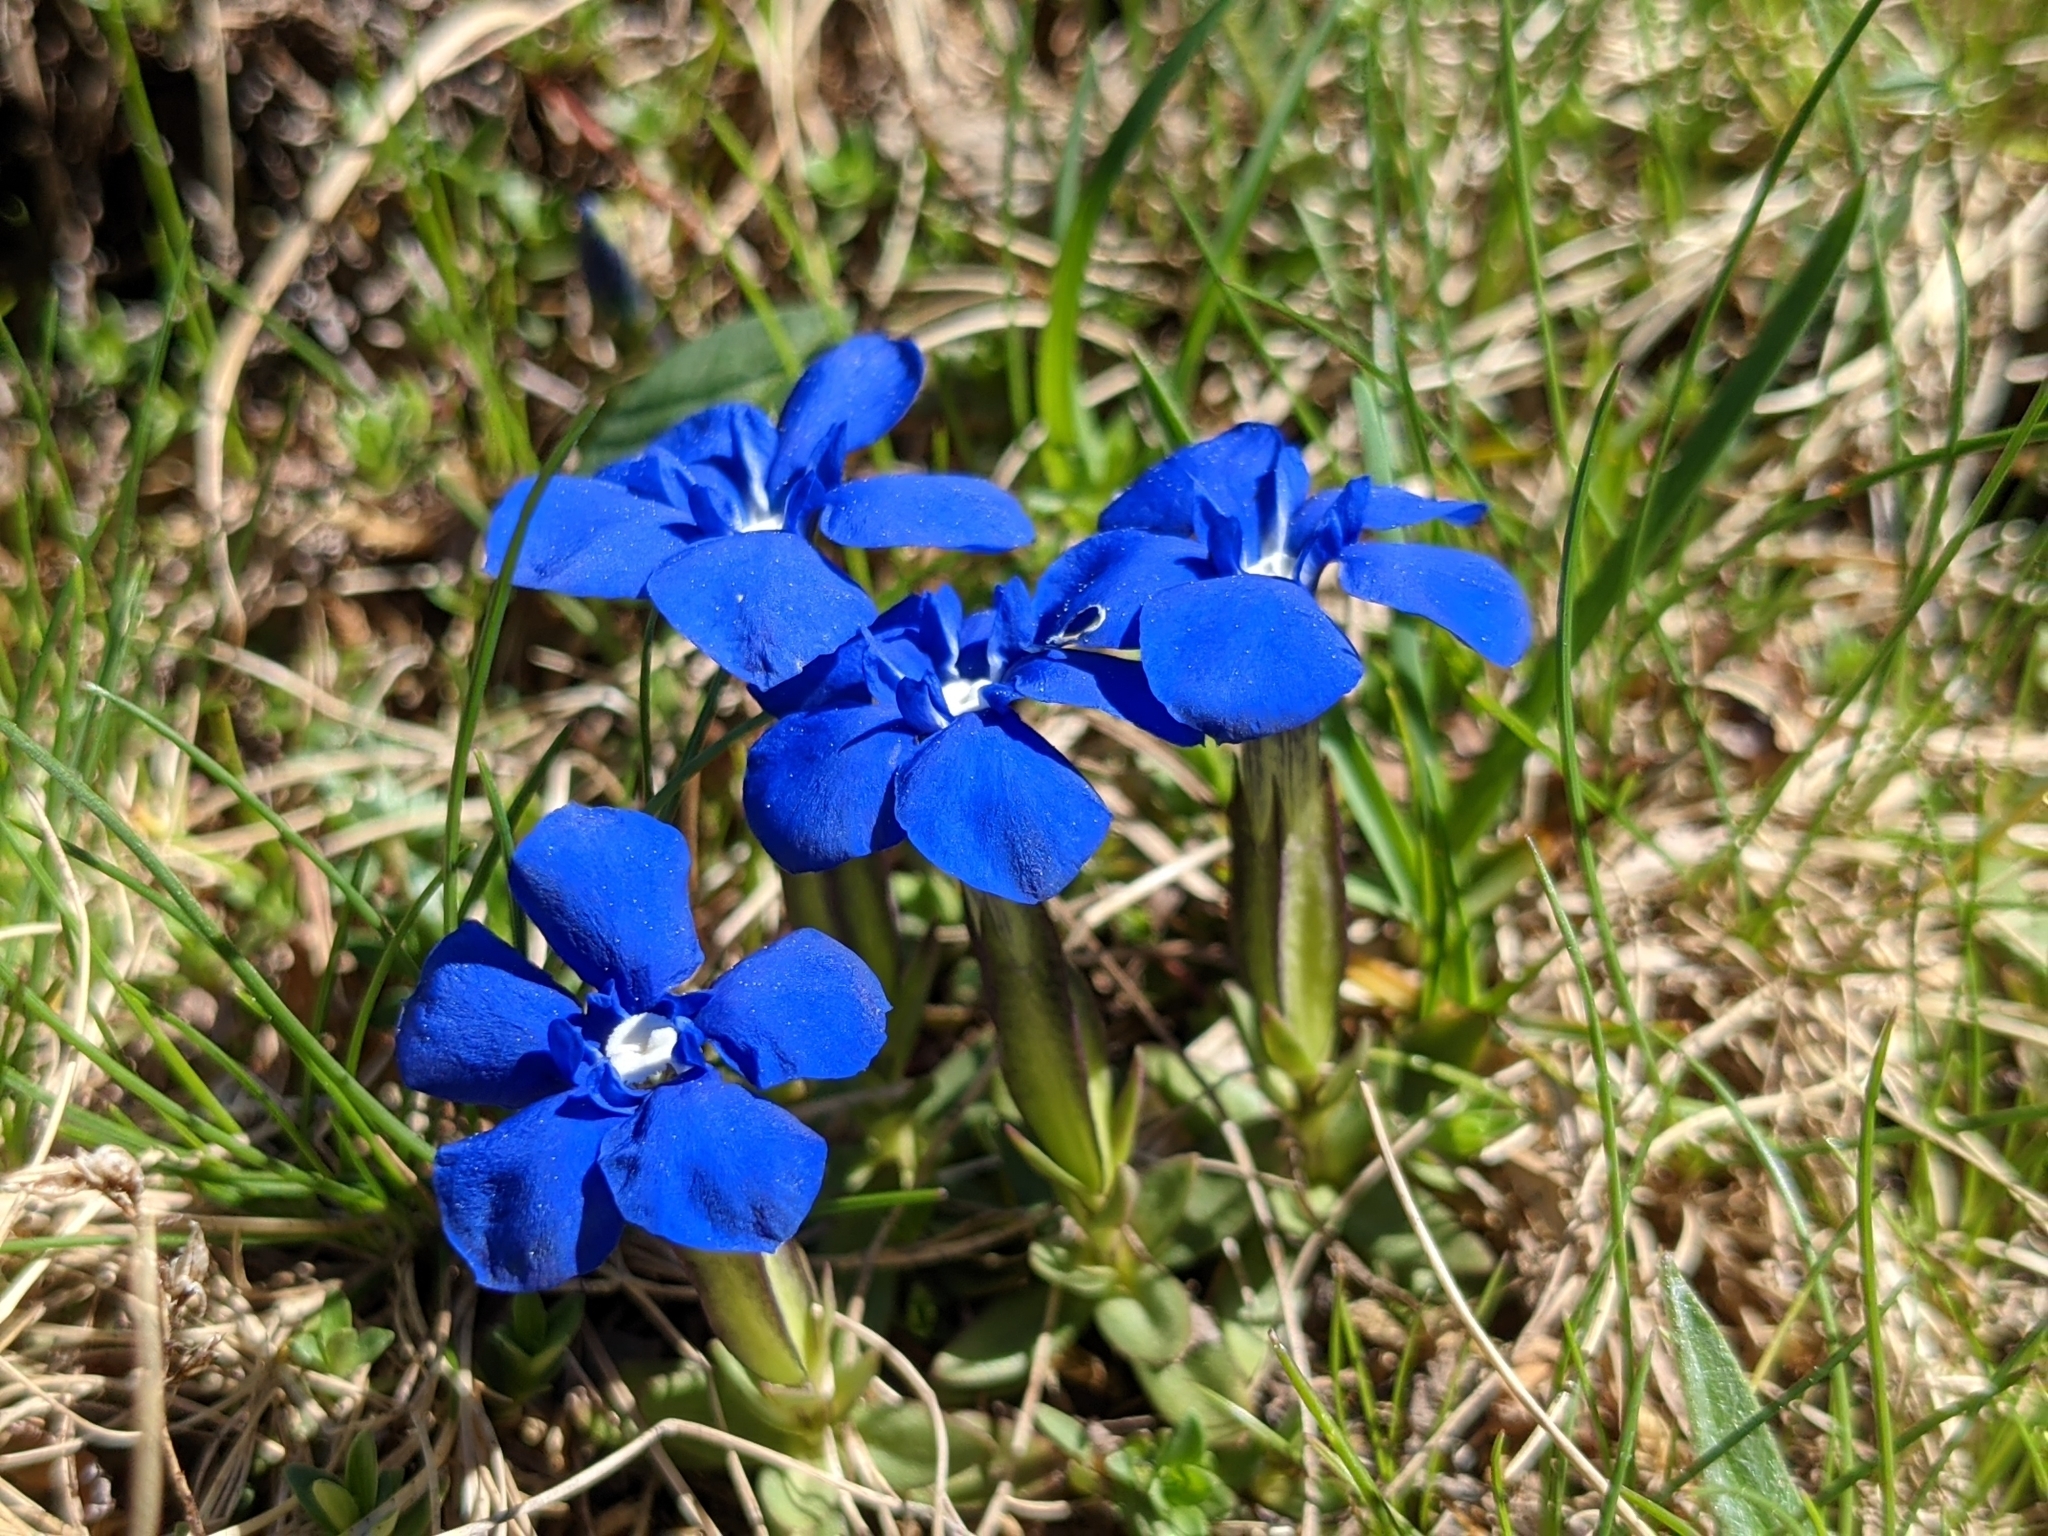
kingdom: Plantae
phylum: Tracheophyta
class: Magnoliopsida
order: Gentianales
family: Gentianaceae
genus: Gentiana
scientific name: Gentiana verna
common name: Spring gentian
